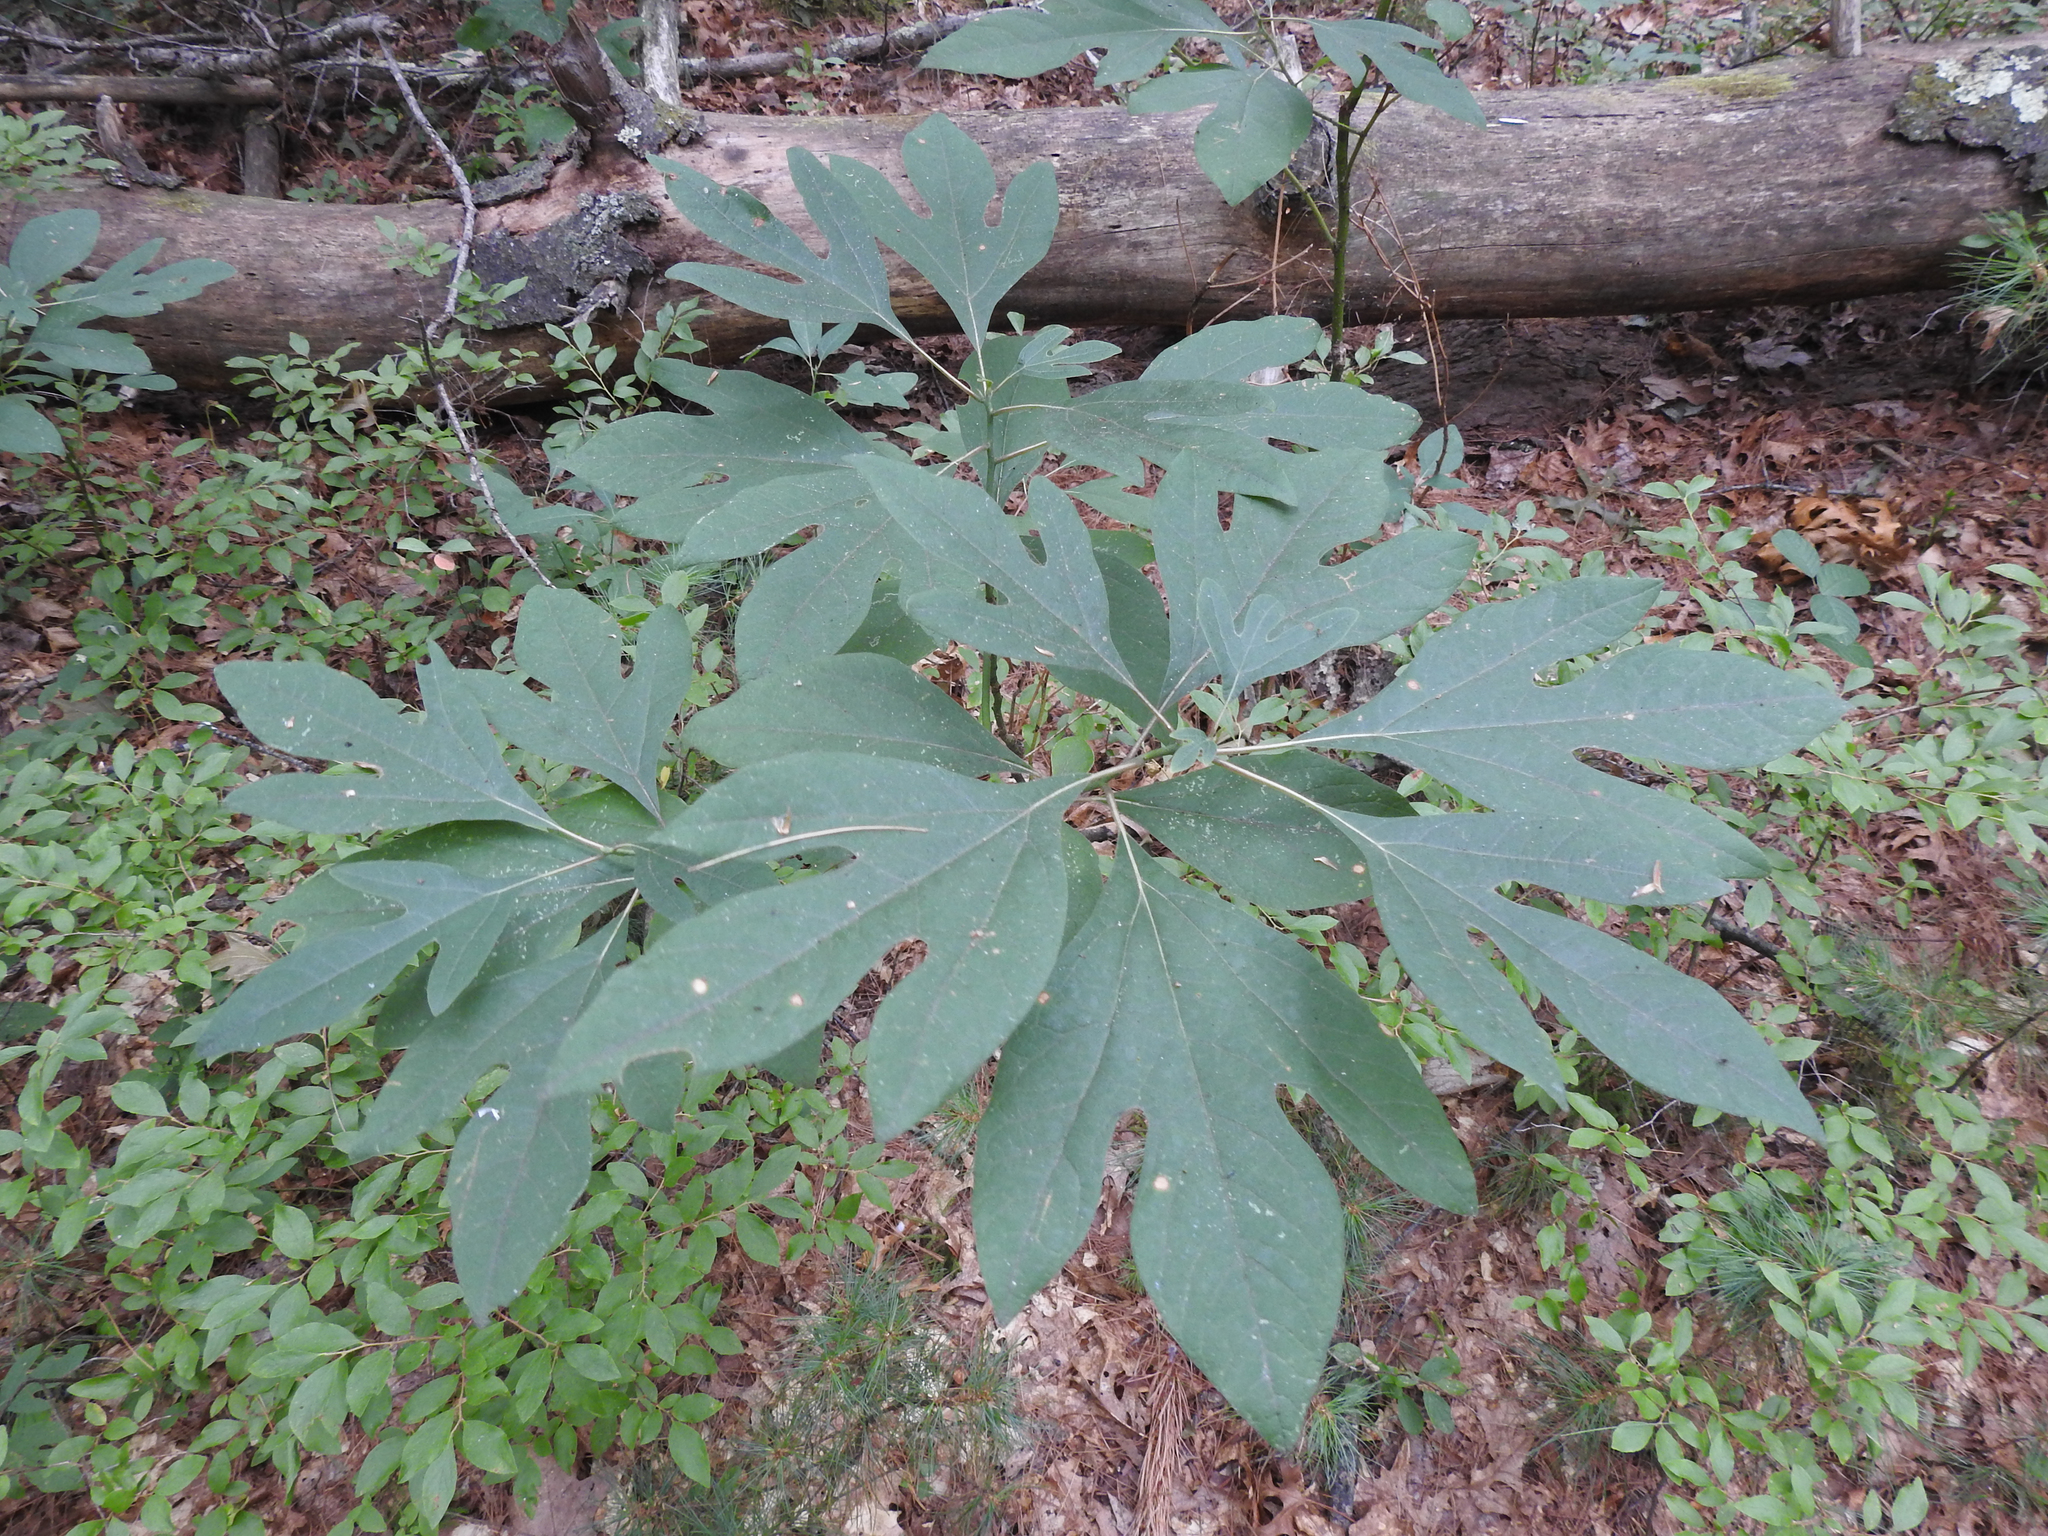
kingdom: Plantae
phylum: Tracheophyta
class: Magnoliopsida
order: Laurales
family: Lauraceae
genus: Sassafras
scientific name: Sassafras albidum
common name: Sassafras
